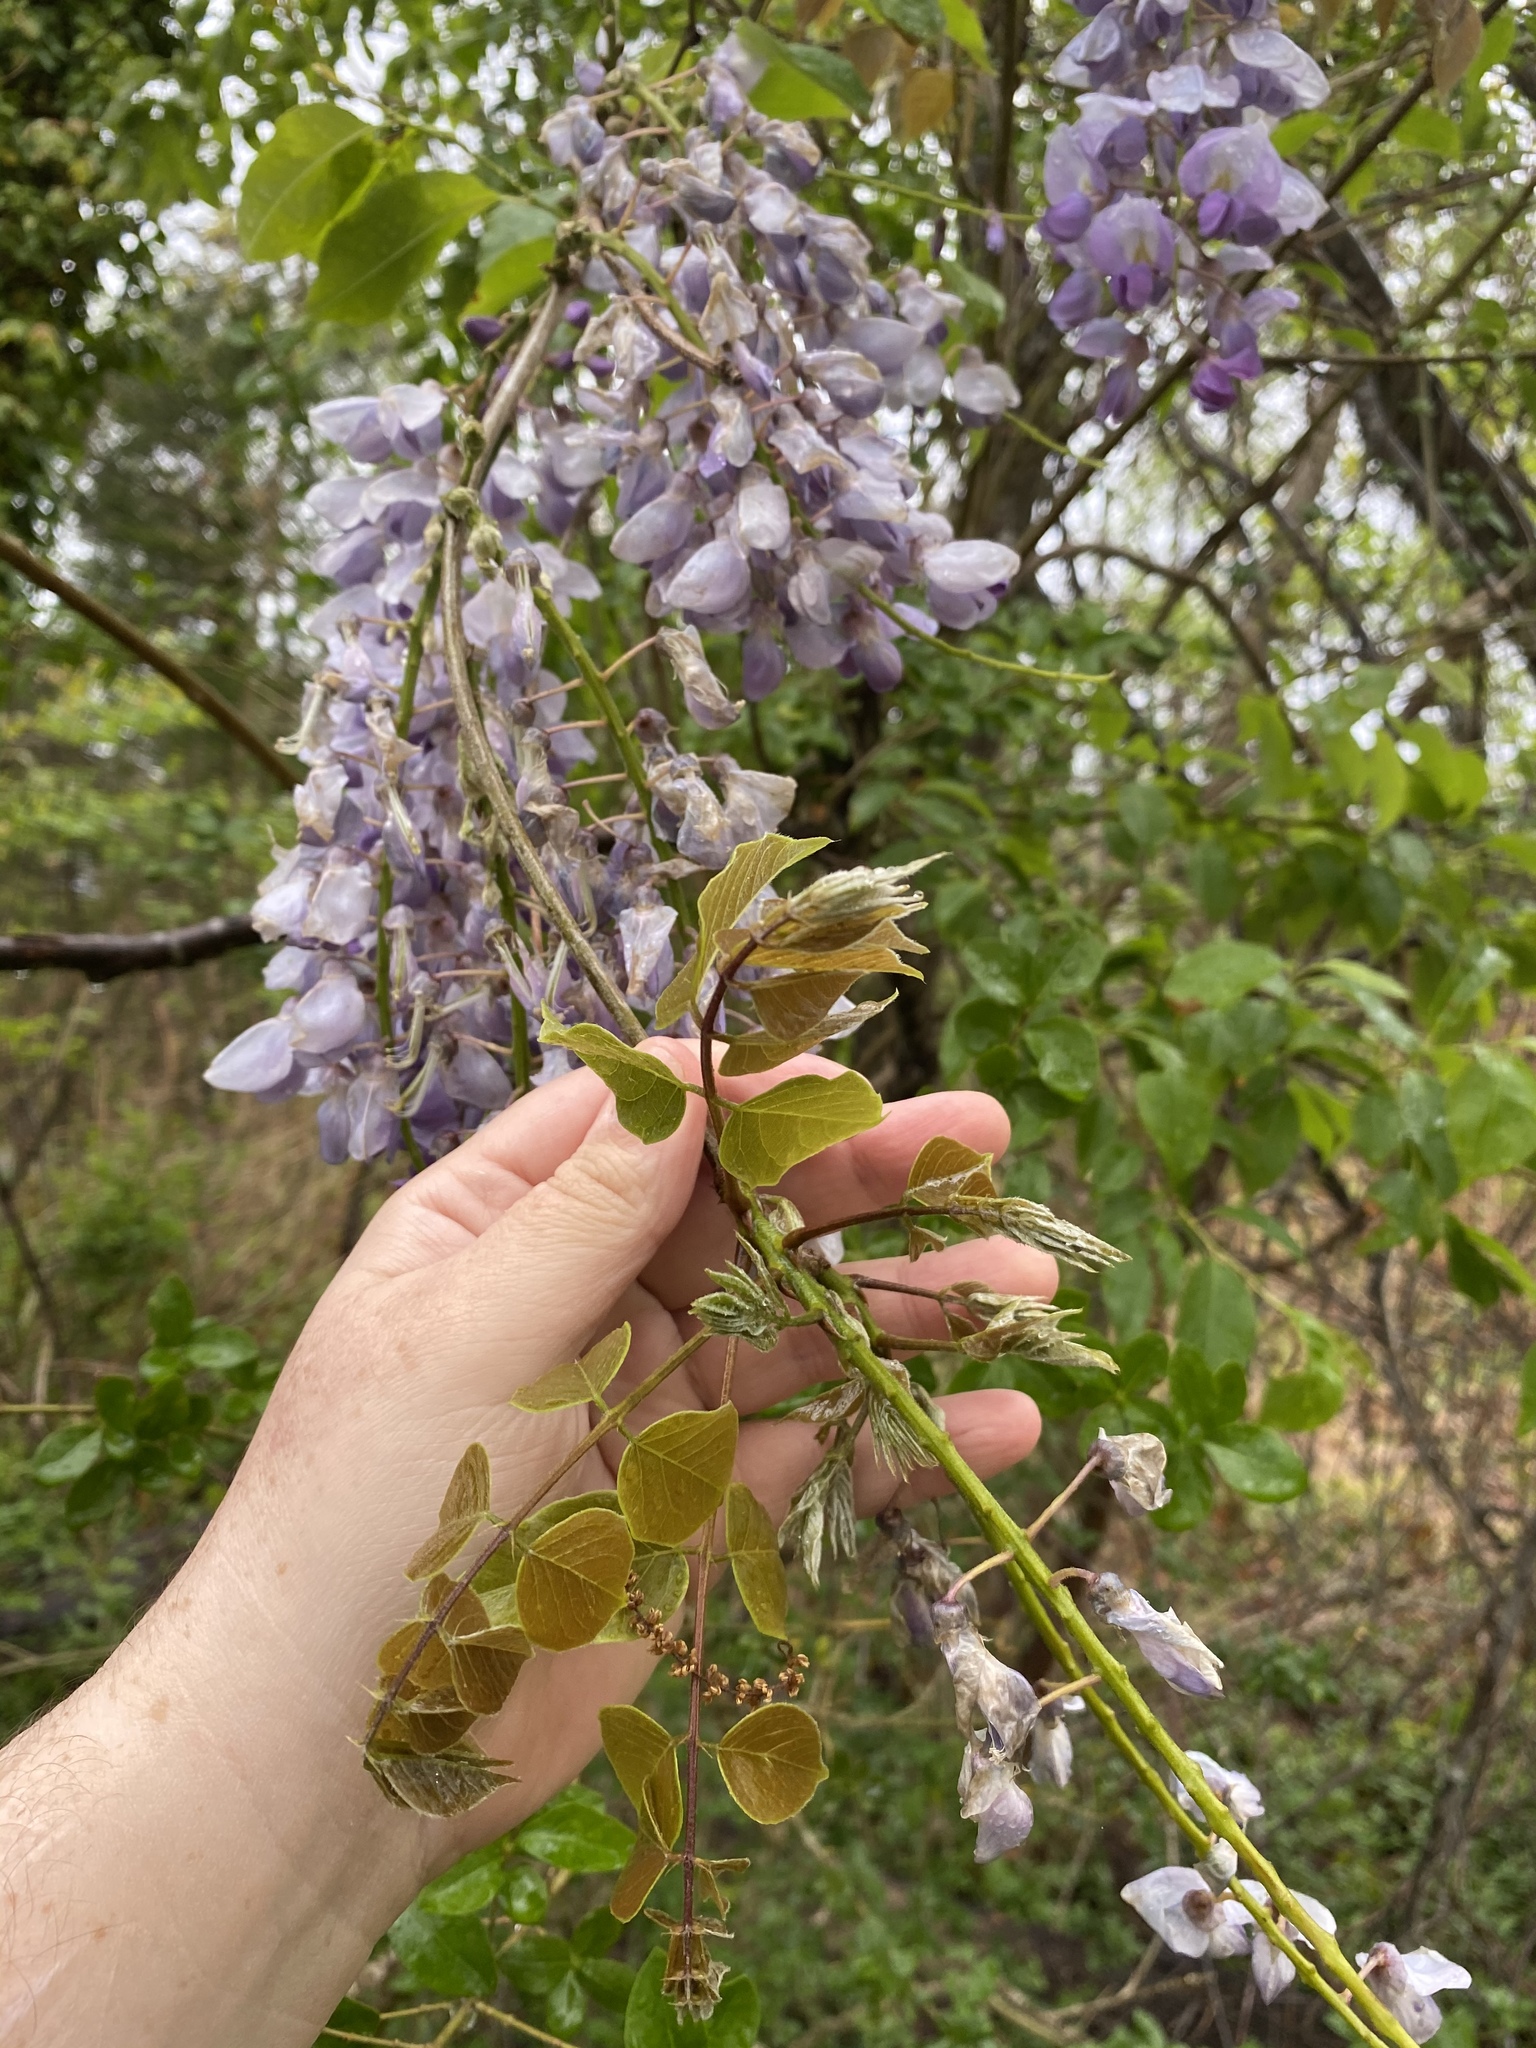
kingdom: Plantae
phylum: Tracheophyta
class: Magnoliopsida
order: Fabales
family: Fabaceae
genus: Wisteria
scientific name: Wisteria sinensis
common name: Chinese wisteria
